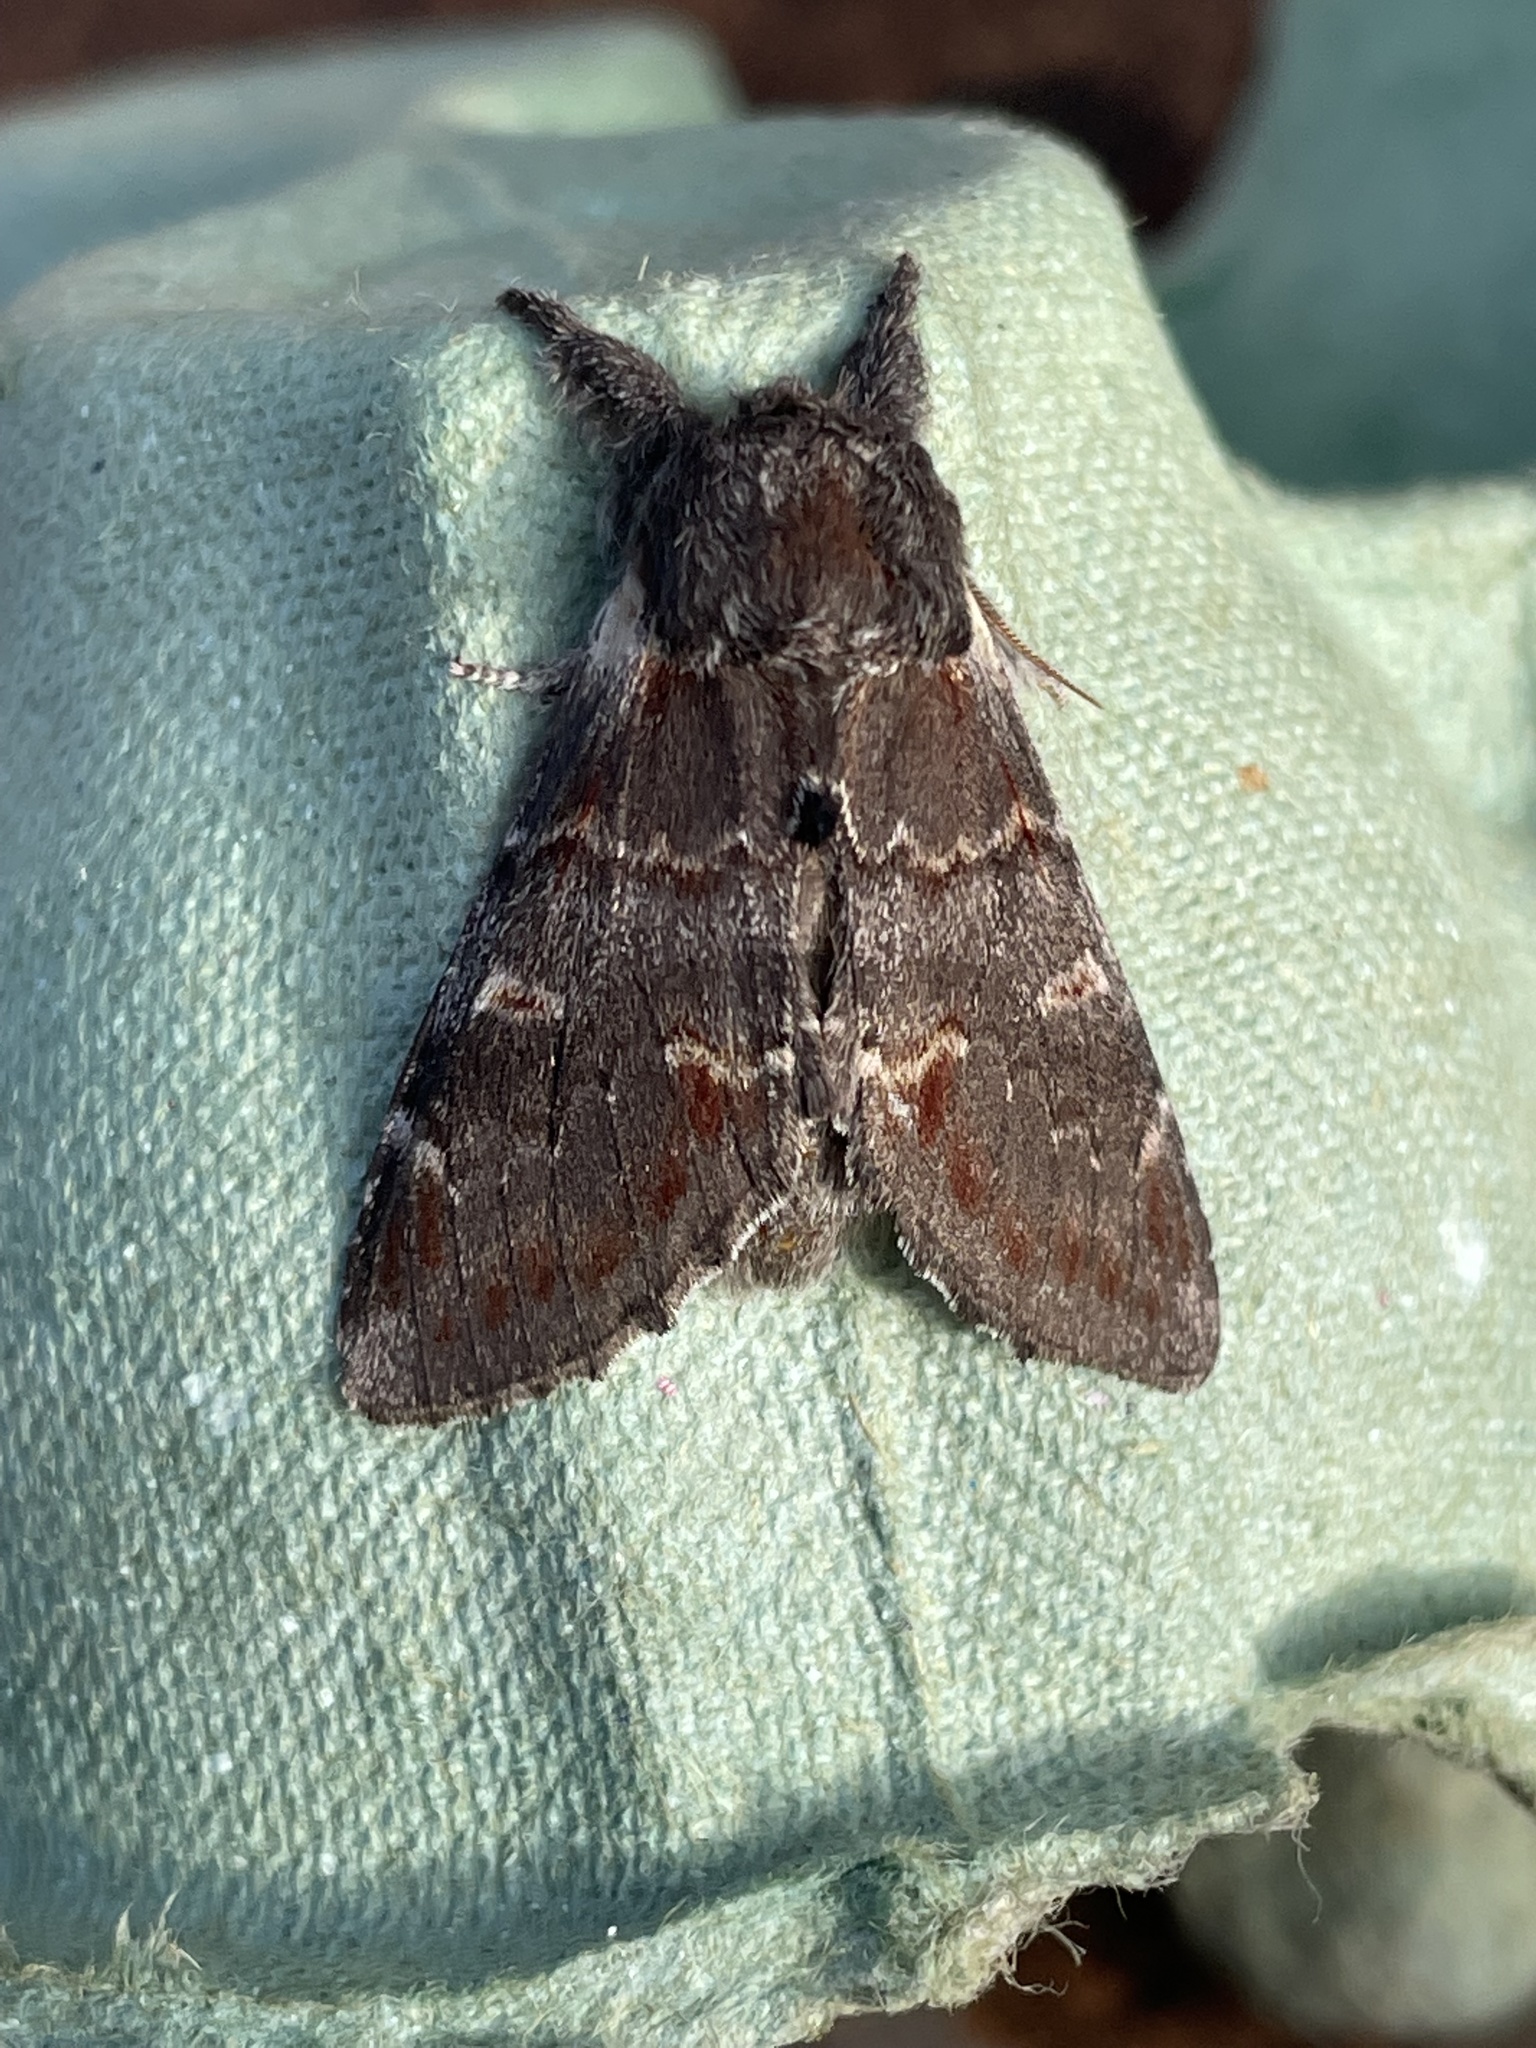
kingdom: Animalia
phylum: Arthropoda
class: Insecta
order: Lepidoptera
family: Notodontidae
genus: Notodonta
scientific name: Notodonta dromedarius
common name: Iron prominent
